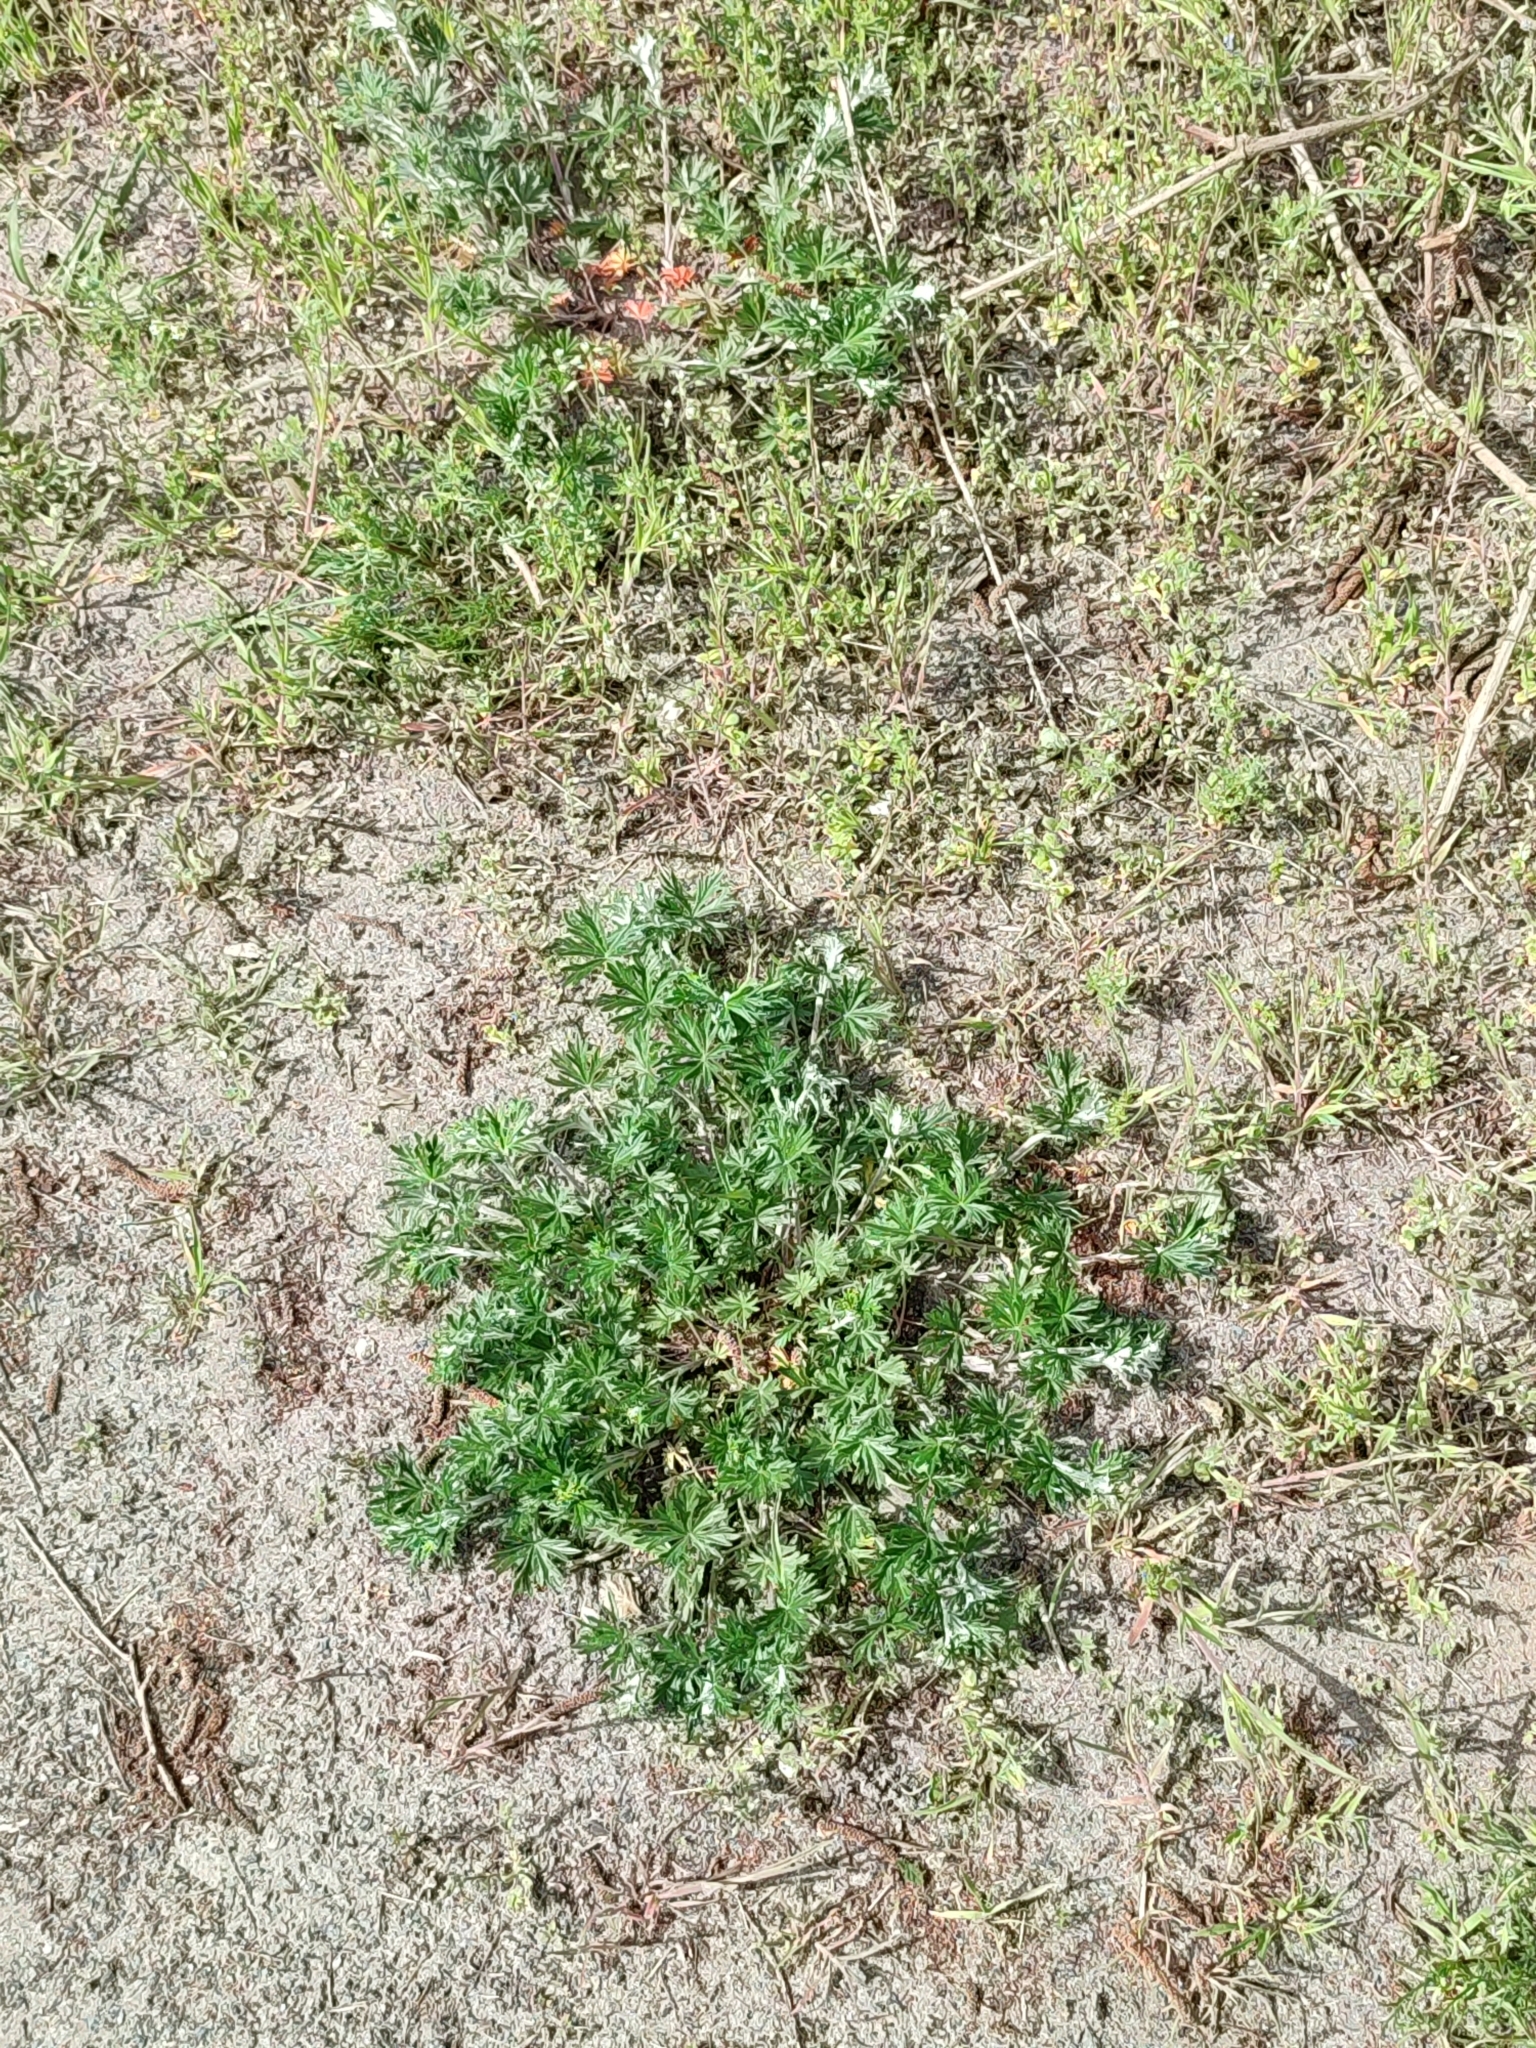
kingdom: Plantae
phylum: Tracheophyta
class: Magnoliopsida
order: Rosales
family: Rosaceae
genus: Potentilla
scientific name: Potentilla argentea
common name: Hoary cinquefoil
